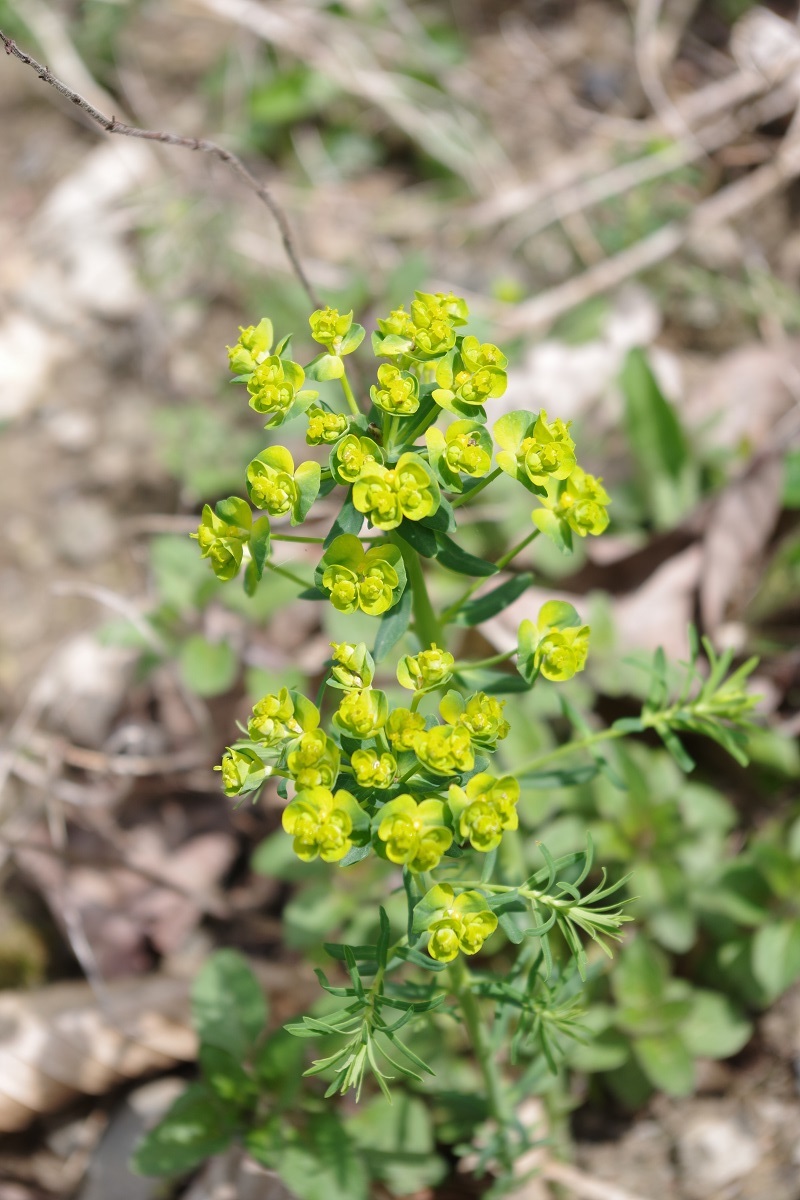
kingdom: Plantae
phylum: Tracheophyta
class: Magnoliopsida
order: Malpighiales
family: Euphorbiaceae
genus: Euphorbia
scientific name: Euphorbia cyparissias
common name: Cypress spurge
